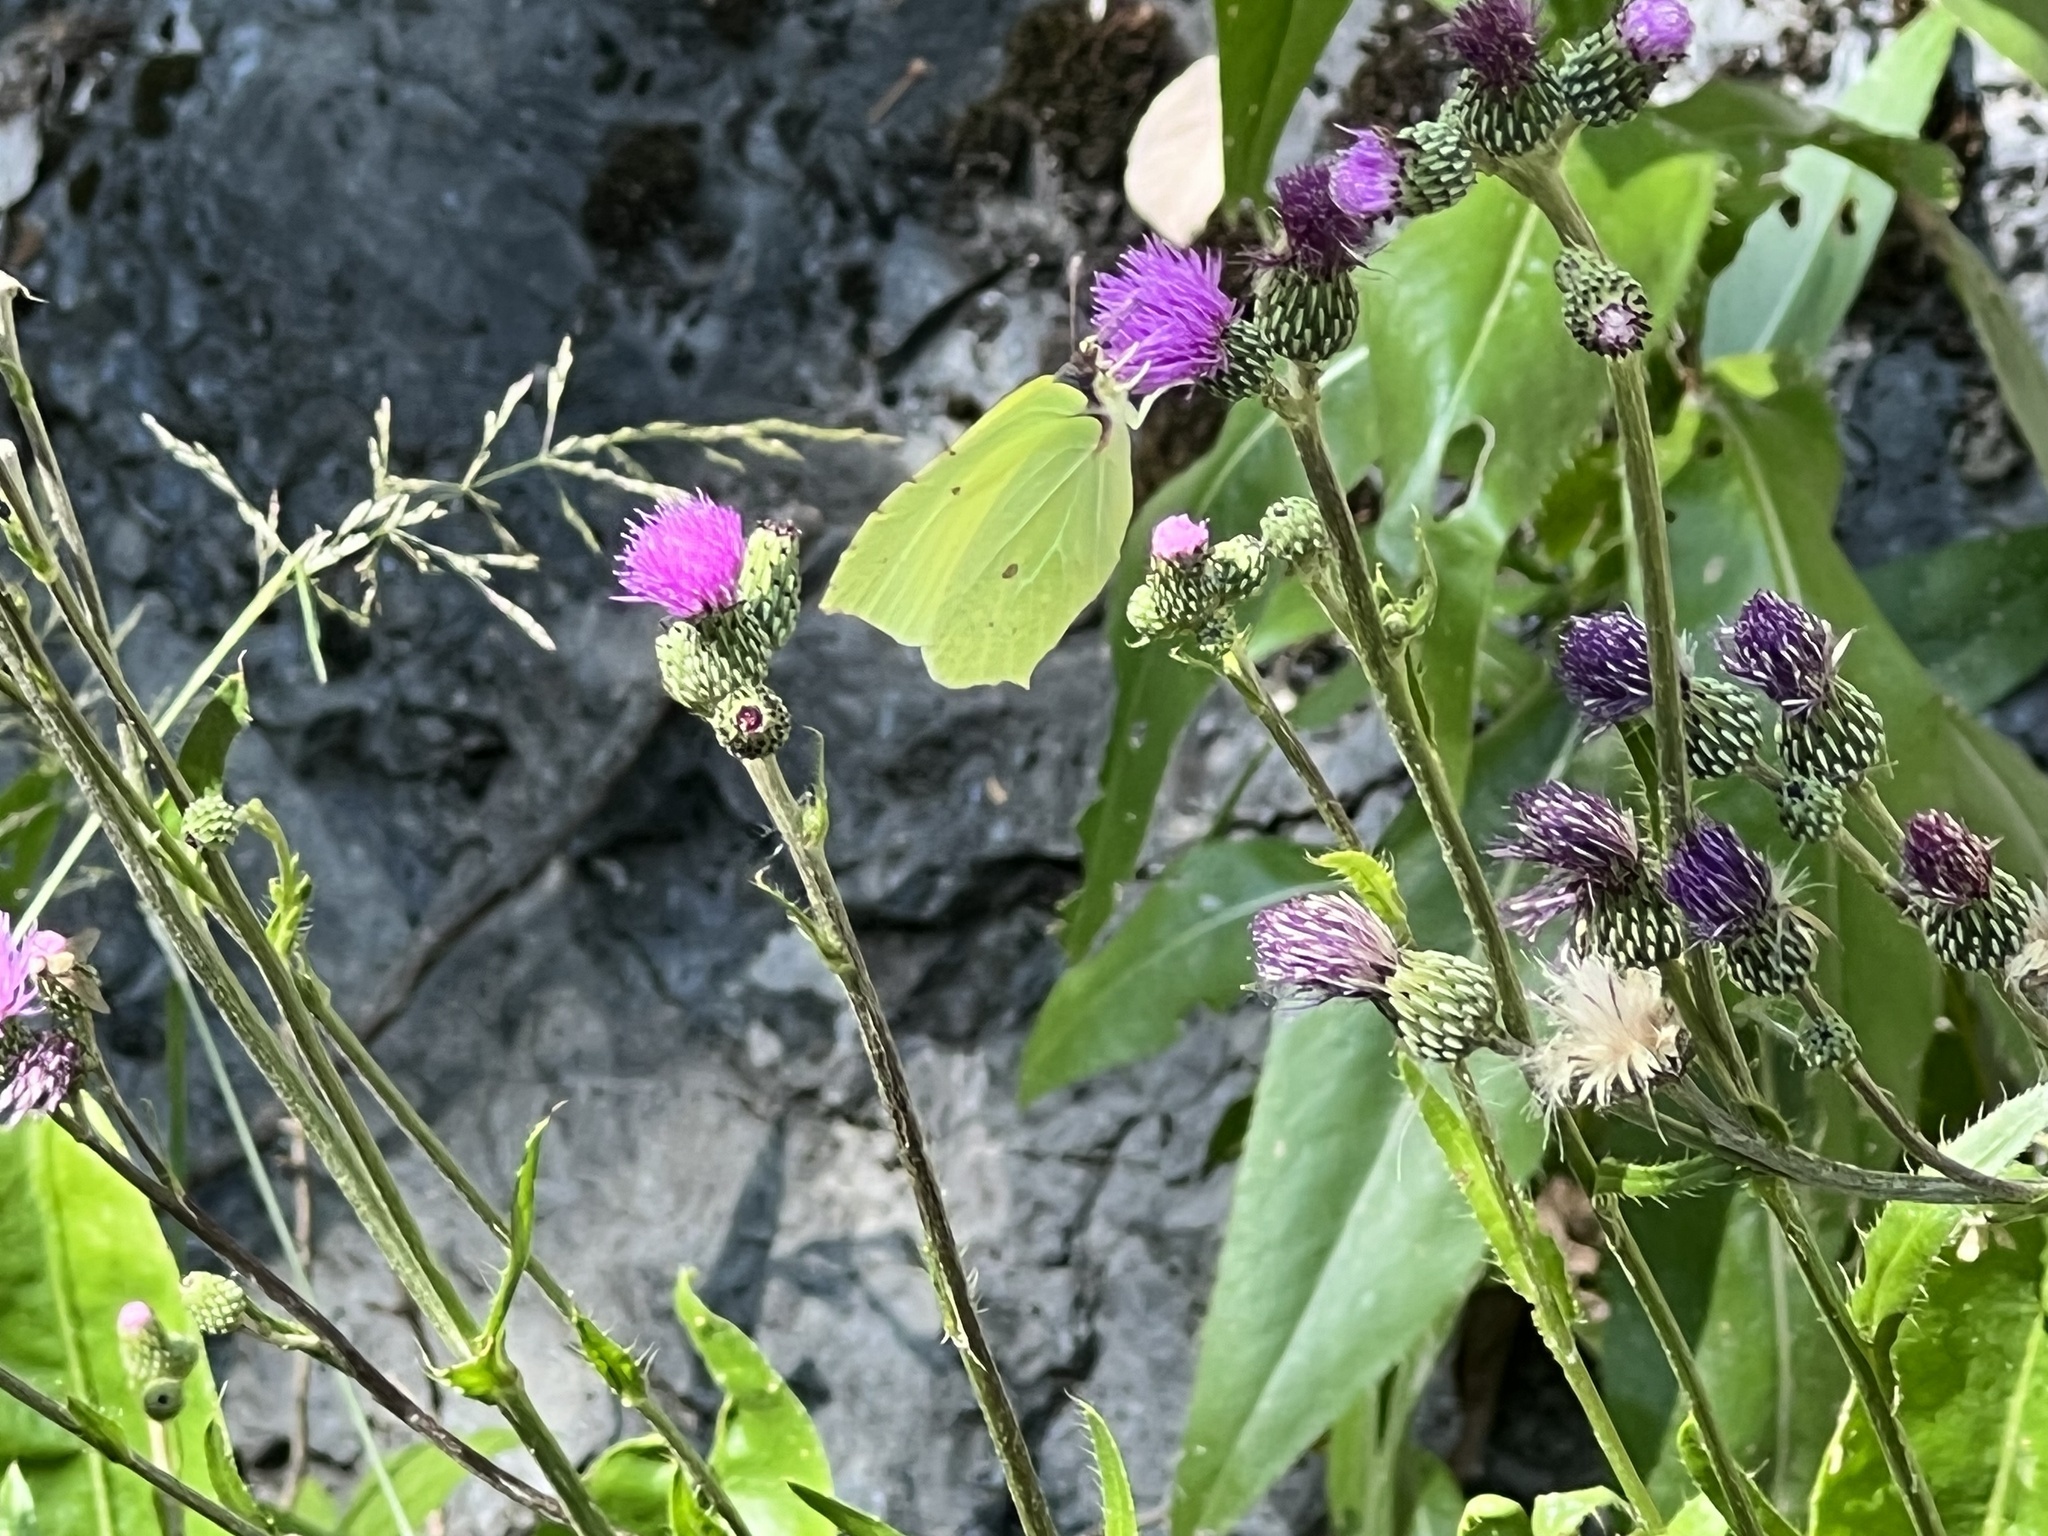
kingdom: Animalia
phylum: Arthropoda
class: Insecta
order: Lepidoptera
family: Pieridae
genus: Gonepteryx
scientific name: Gonepteryx rhamni
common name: Brimstone
